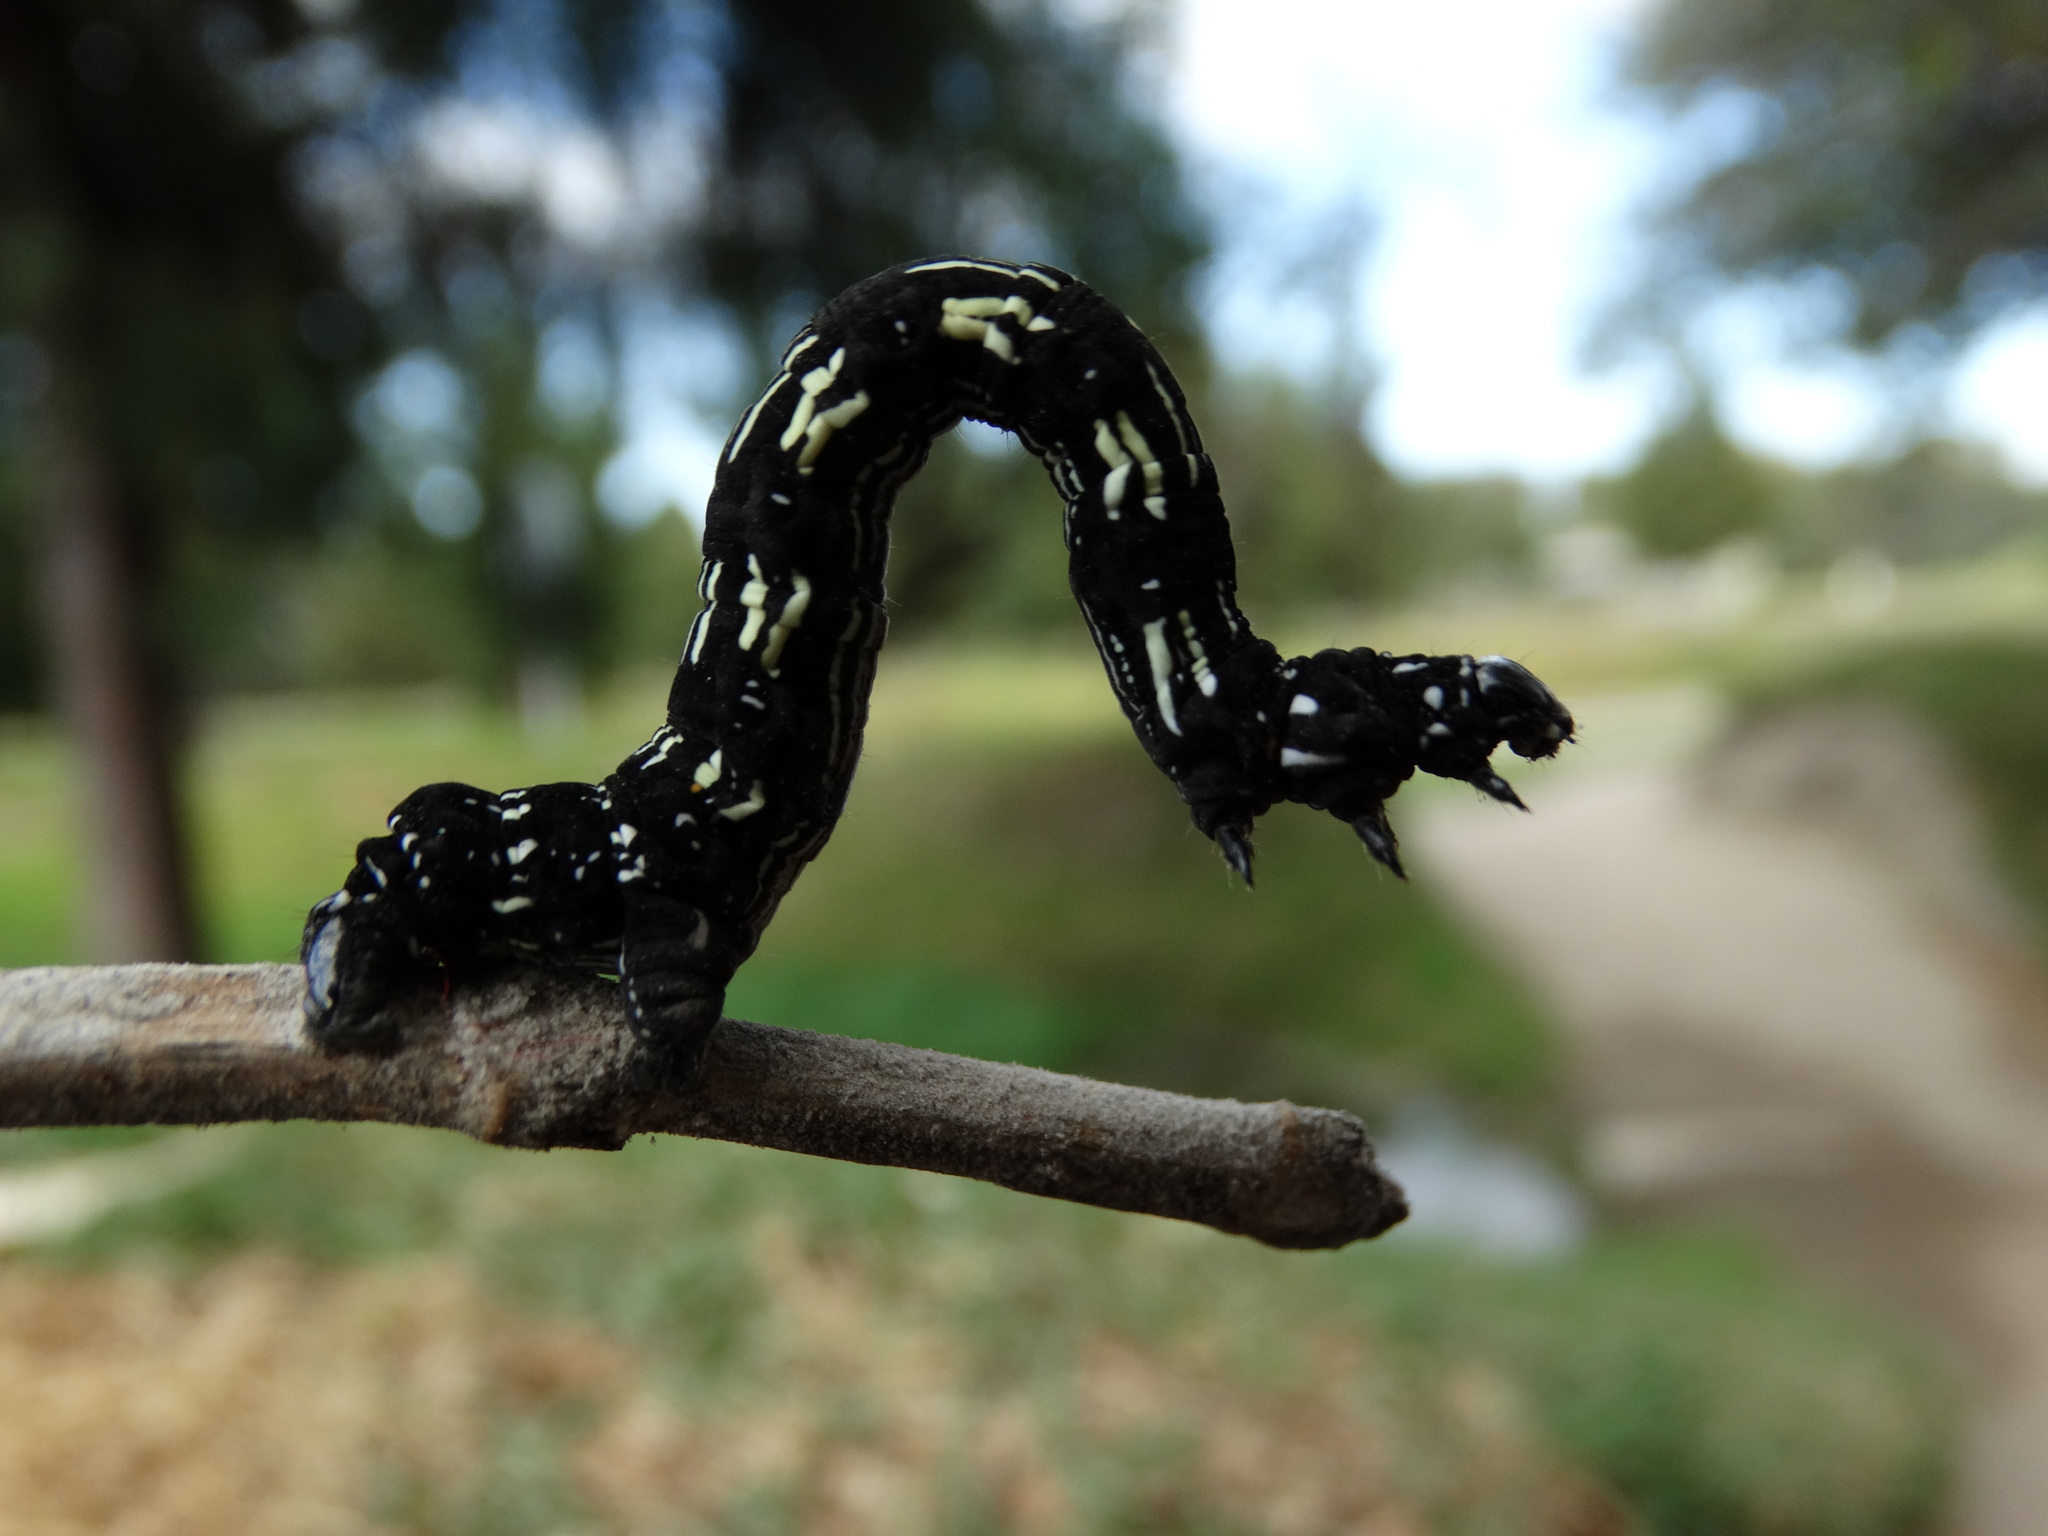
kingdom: Animalia
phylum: Arthropoda
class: Insecta
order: Lepidoptera
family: Geometridae
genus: Acronyctodes
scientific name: Acronyctodes mexicanaria
